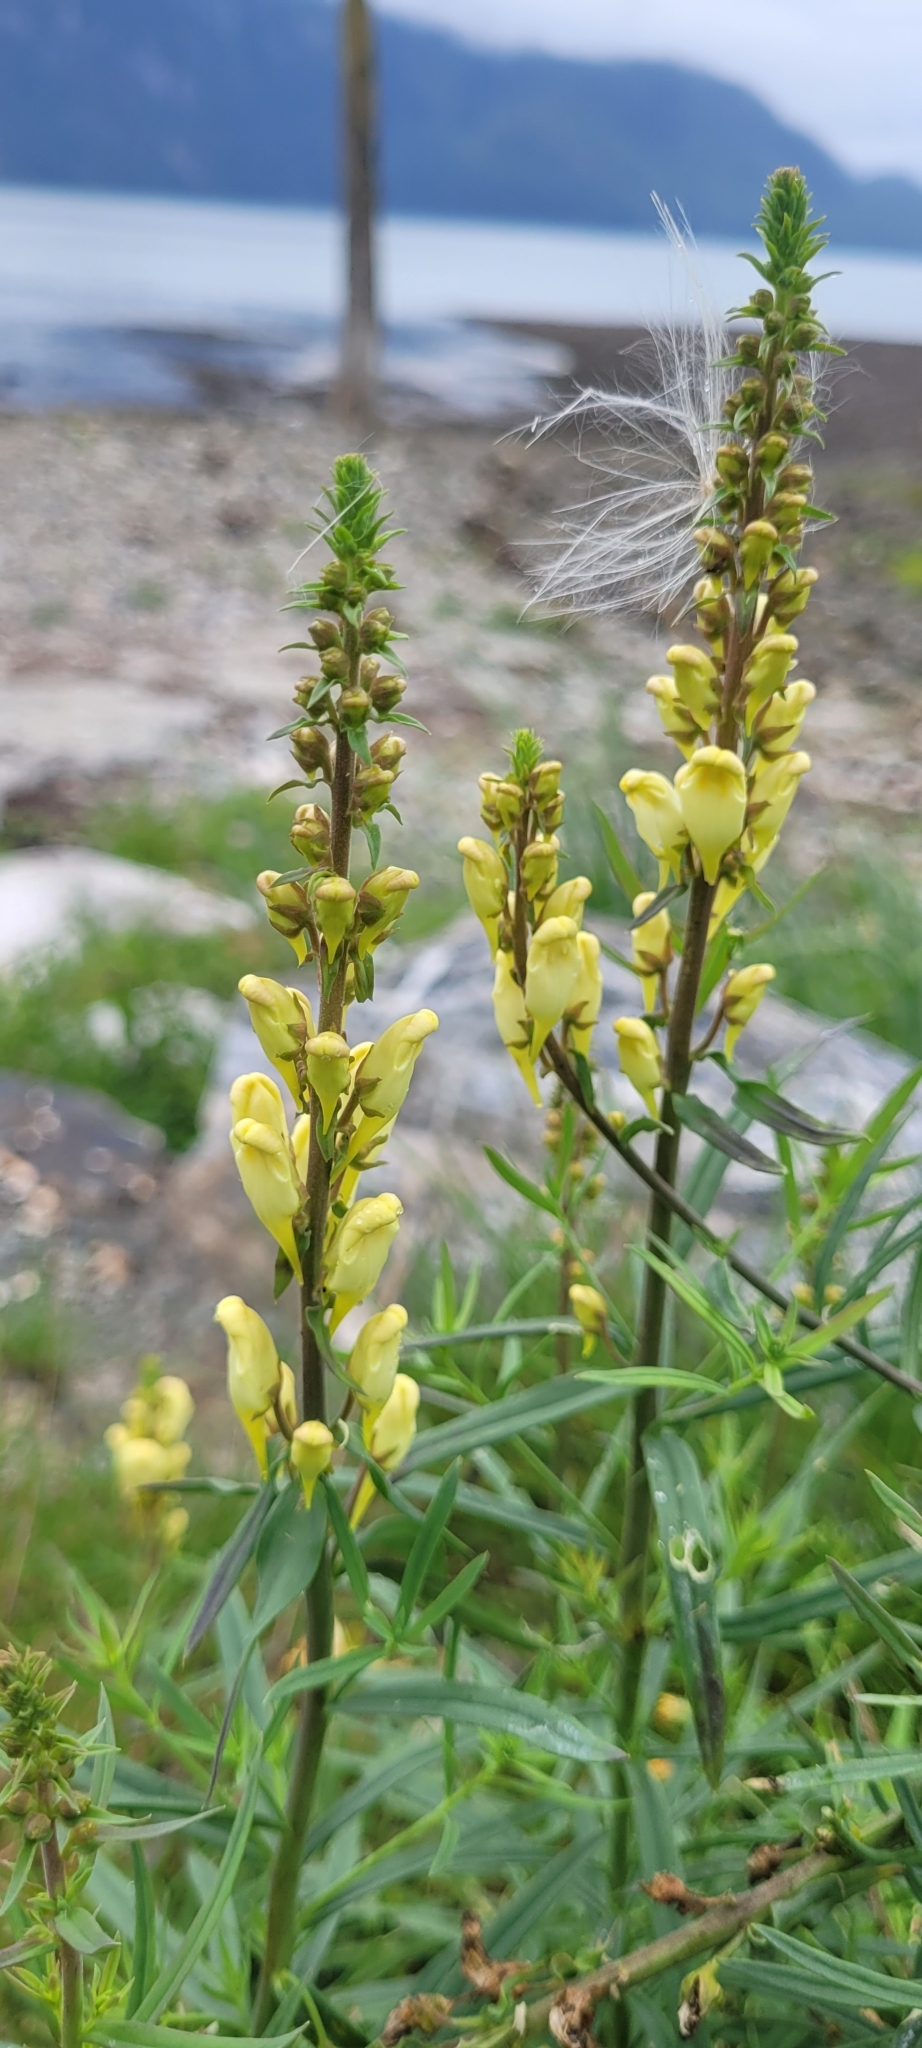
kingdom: Plantae
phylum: Tracheophyta
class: Magnoliopsida
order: Lamiales
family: Plantaginaceae
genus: Linaria
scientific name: Linaria vulgaris
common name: Butter and eggs
